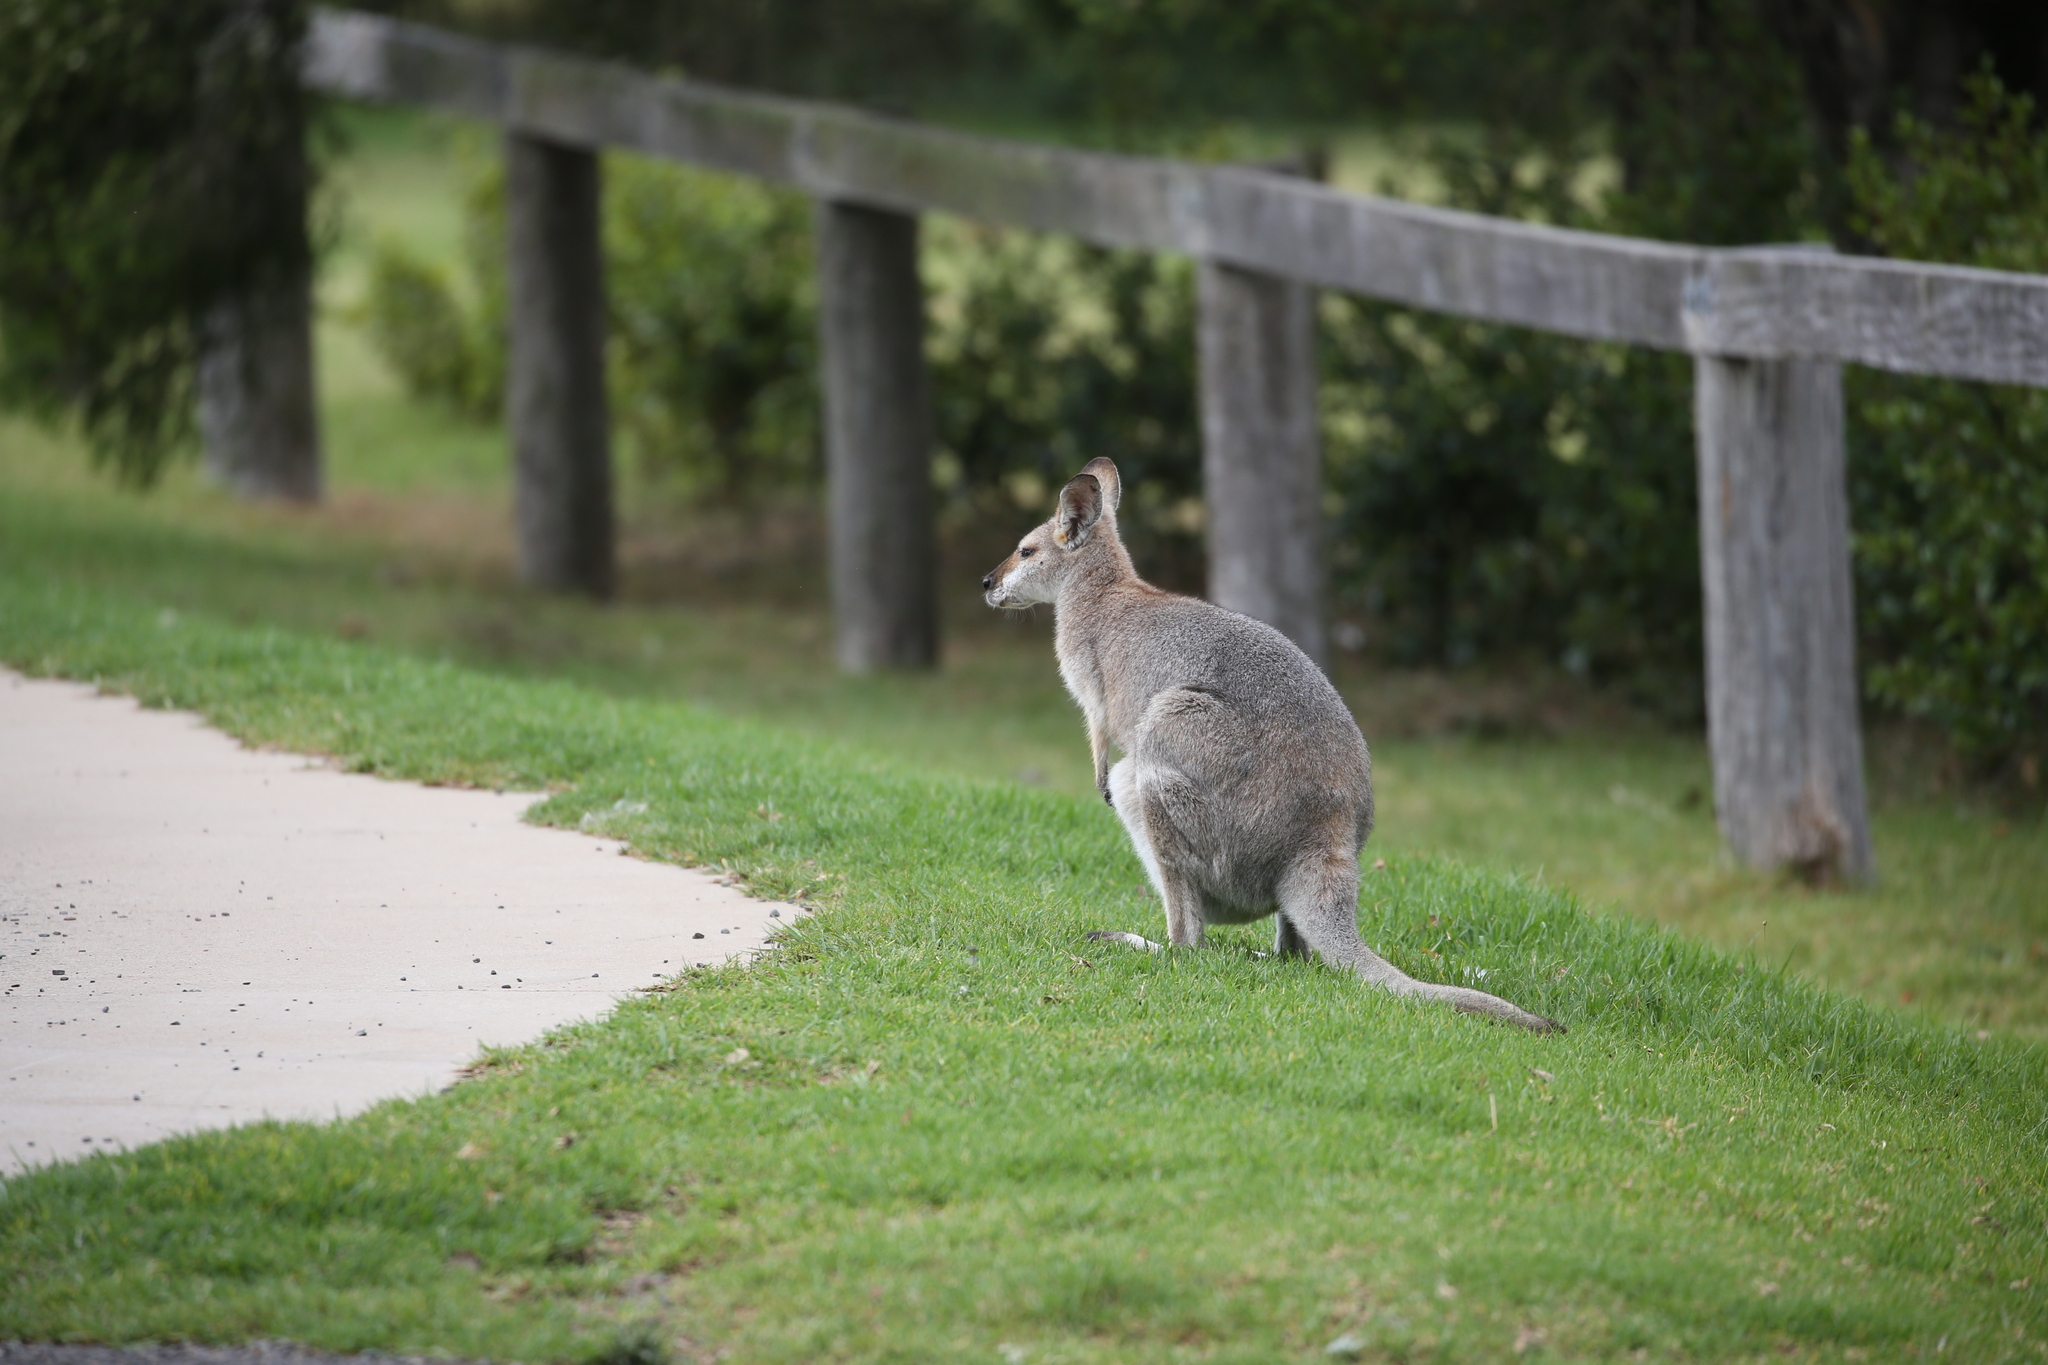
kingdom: Animalia
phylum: Chordata
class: Mammalia
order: Diprotodontia
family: Macropodidae
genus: Notamacropus
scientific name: Notamacropus rufogriseus
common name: Red-necked wallaby
